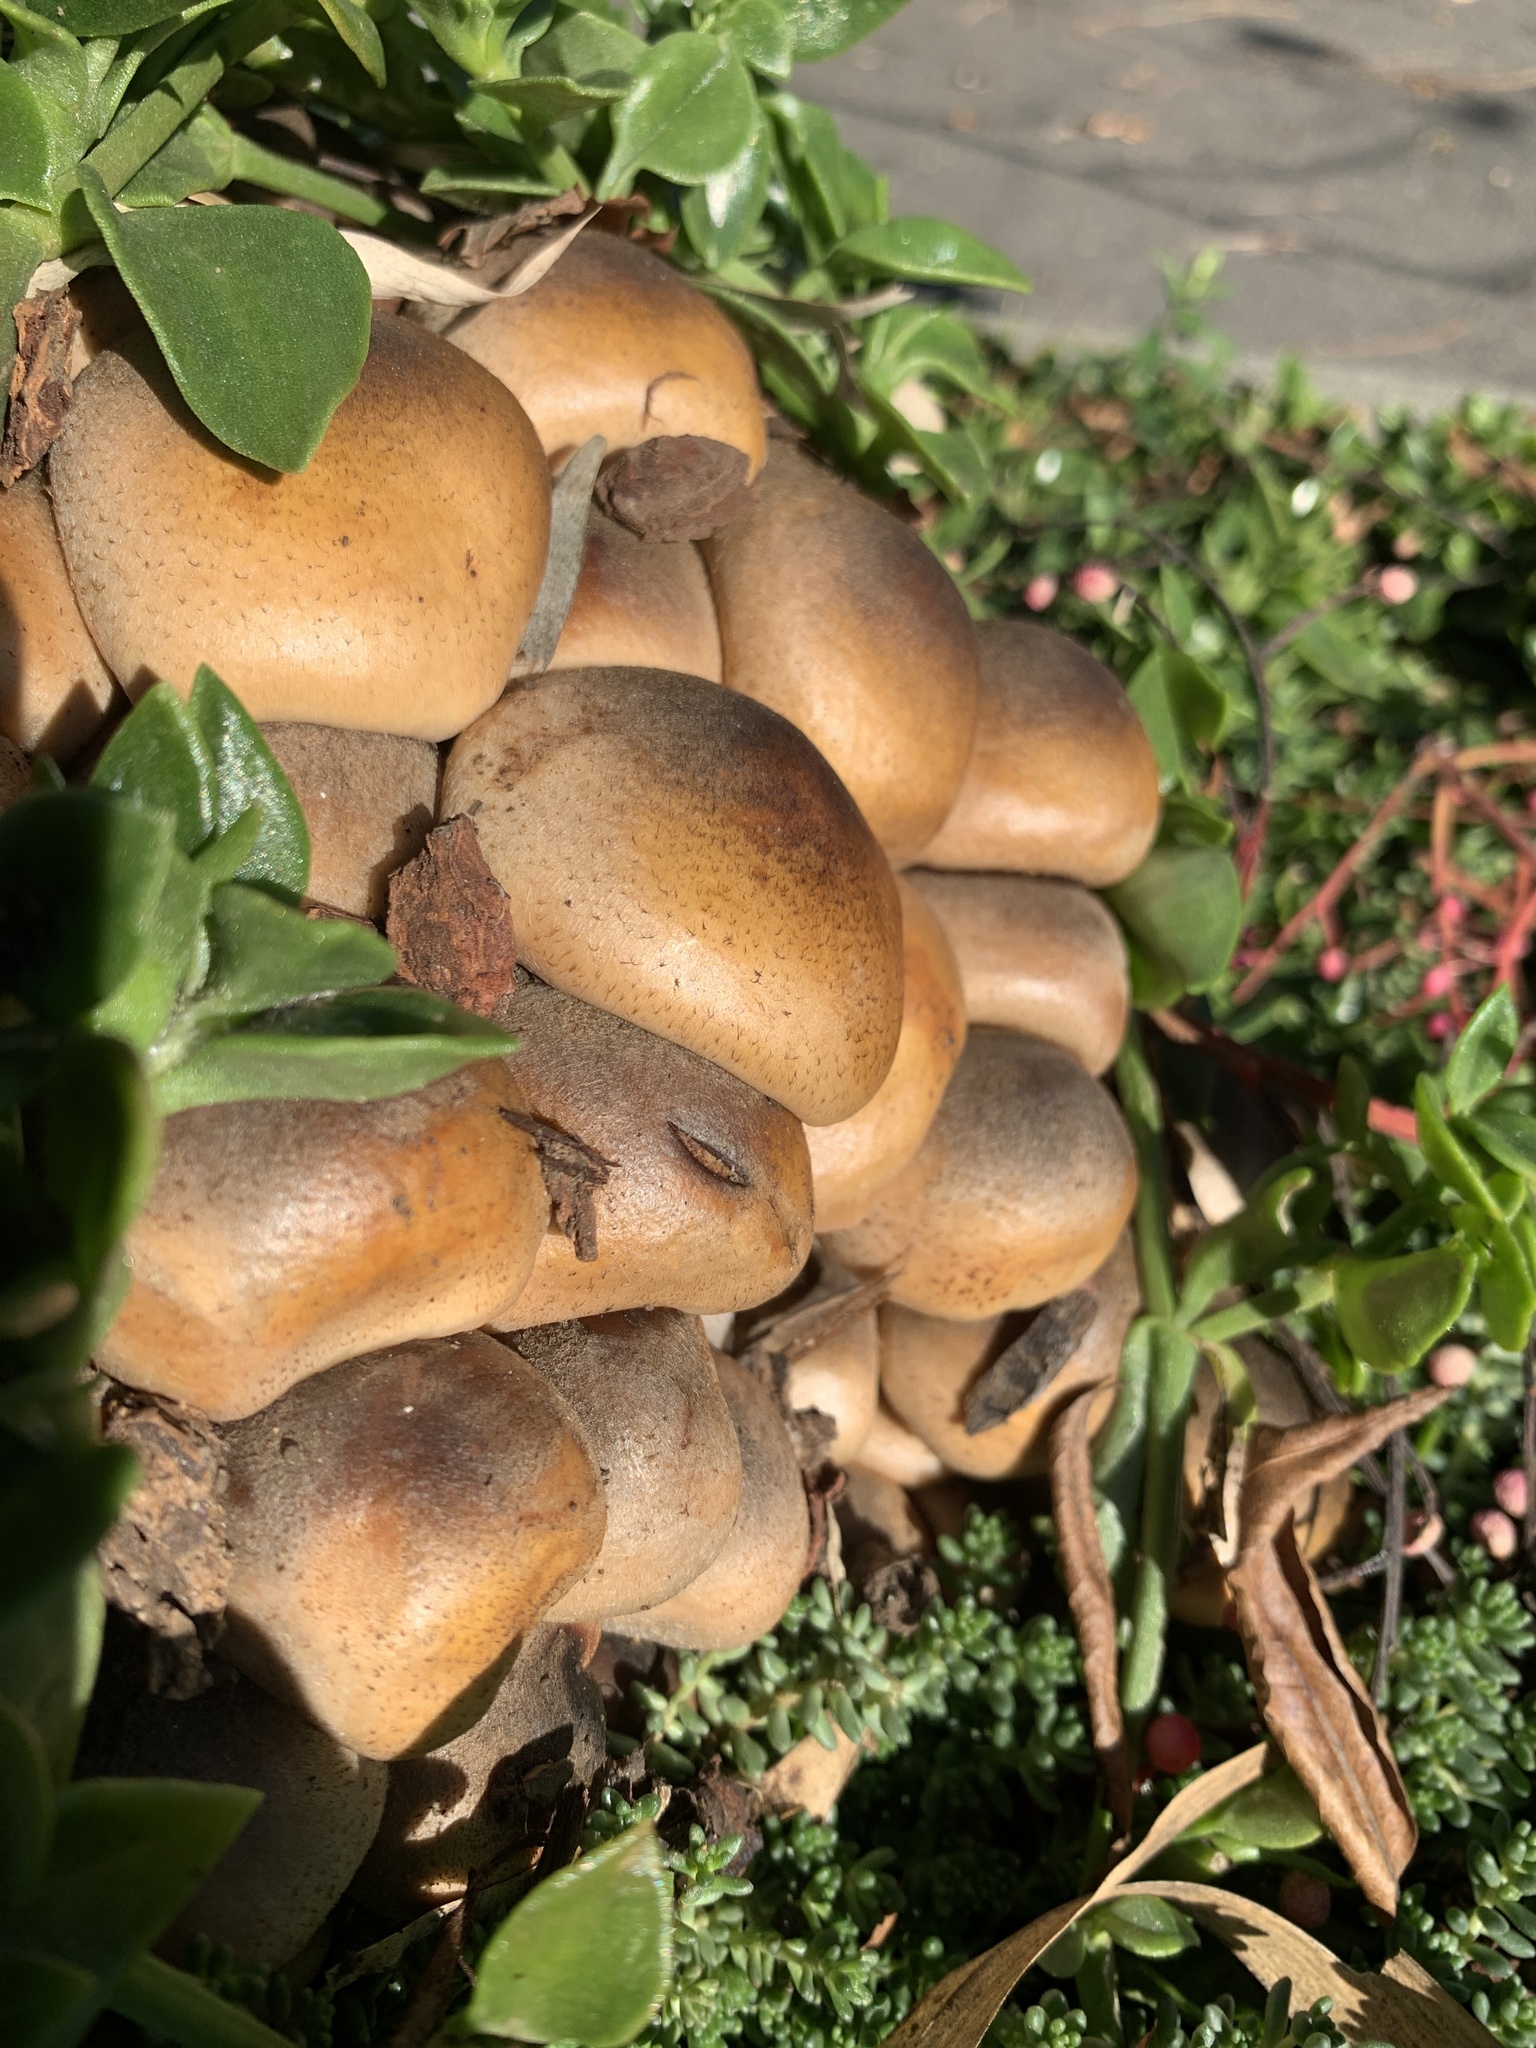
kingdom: Fungi
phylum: Basidiomycota
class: Agaricomycetes
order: Agaricales
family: Physalacriaceae
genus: Armillaria
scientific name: Armillaria mellea
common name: Honey fungus
